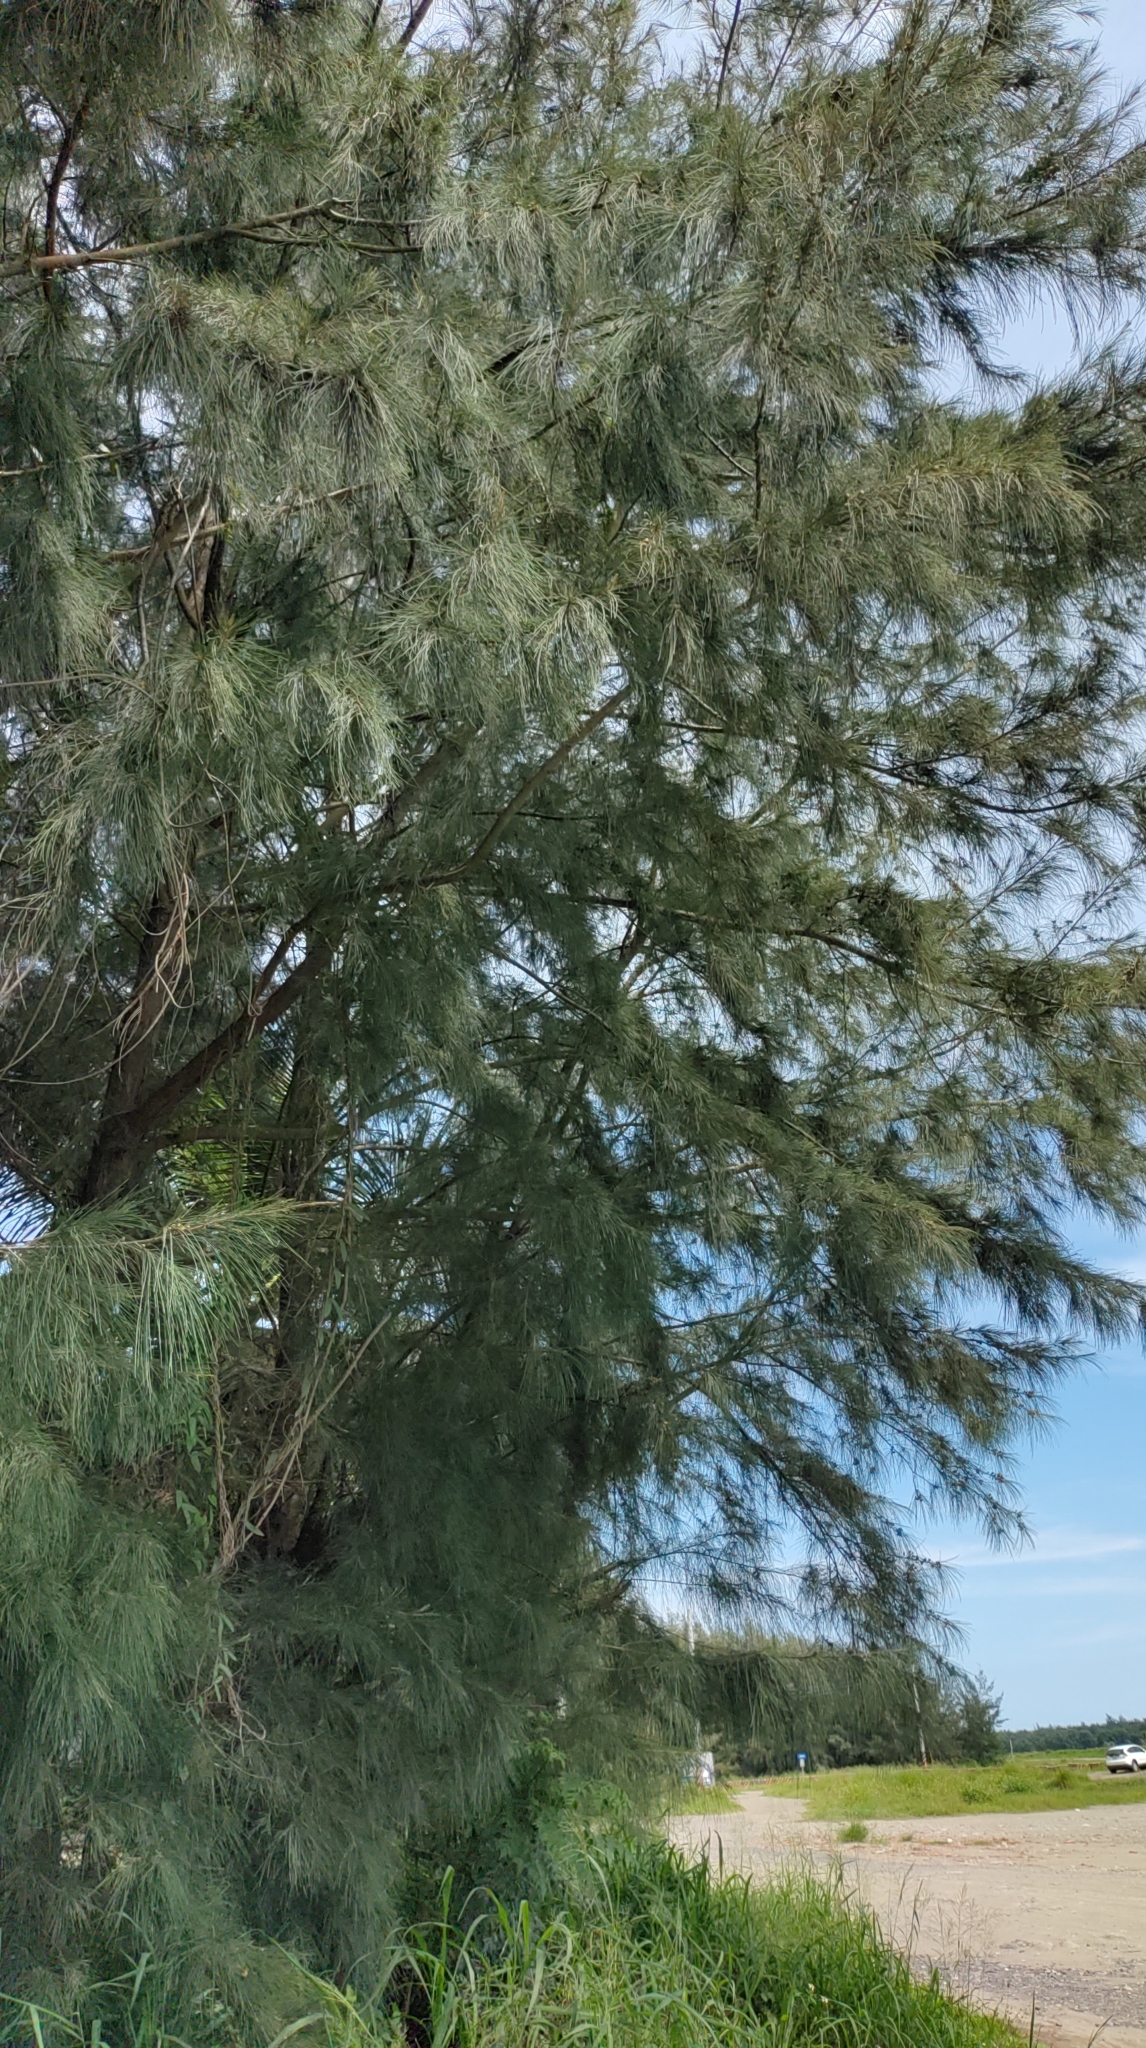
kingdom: Plantae
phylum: Tracheophyta
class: Magnoliopsida
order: Fagales
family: Casuarinaceae
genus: Casuarina
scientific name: Casuarina equisetifolia
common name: Beach sheoak
